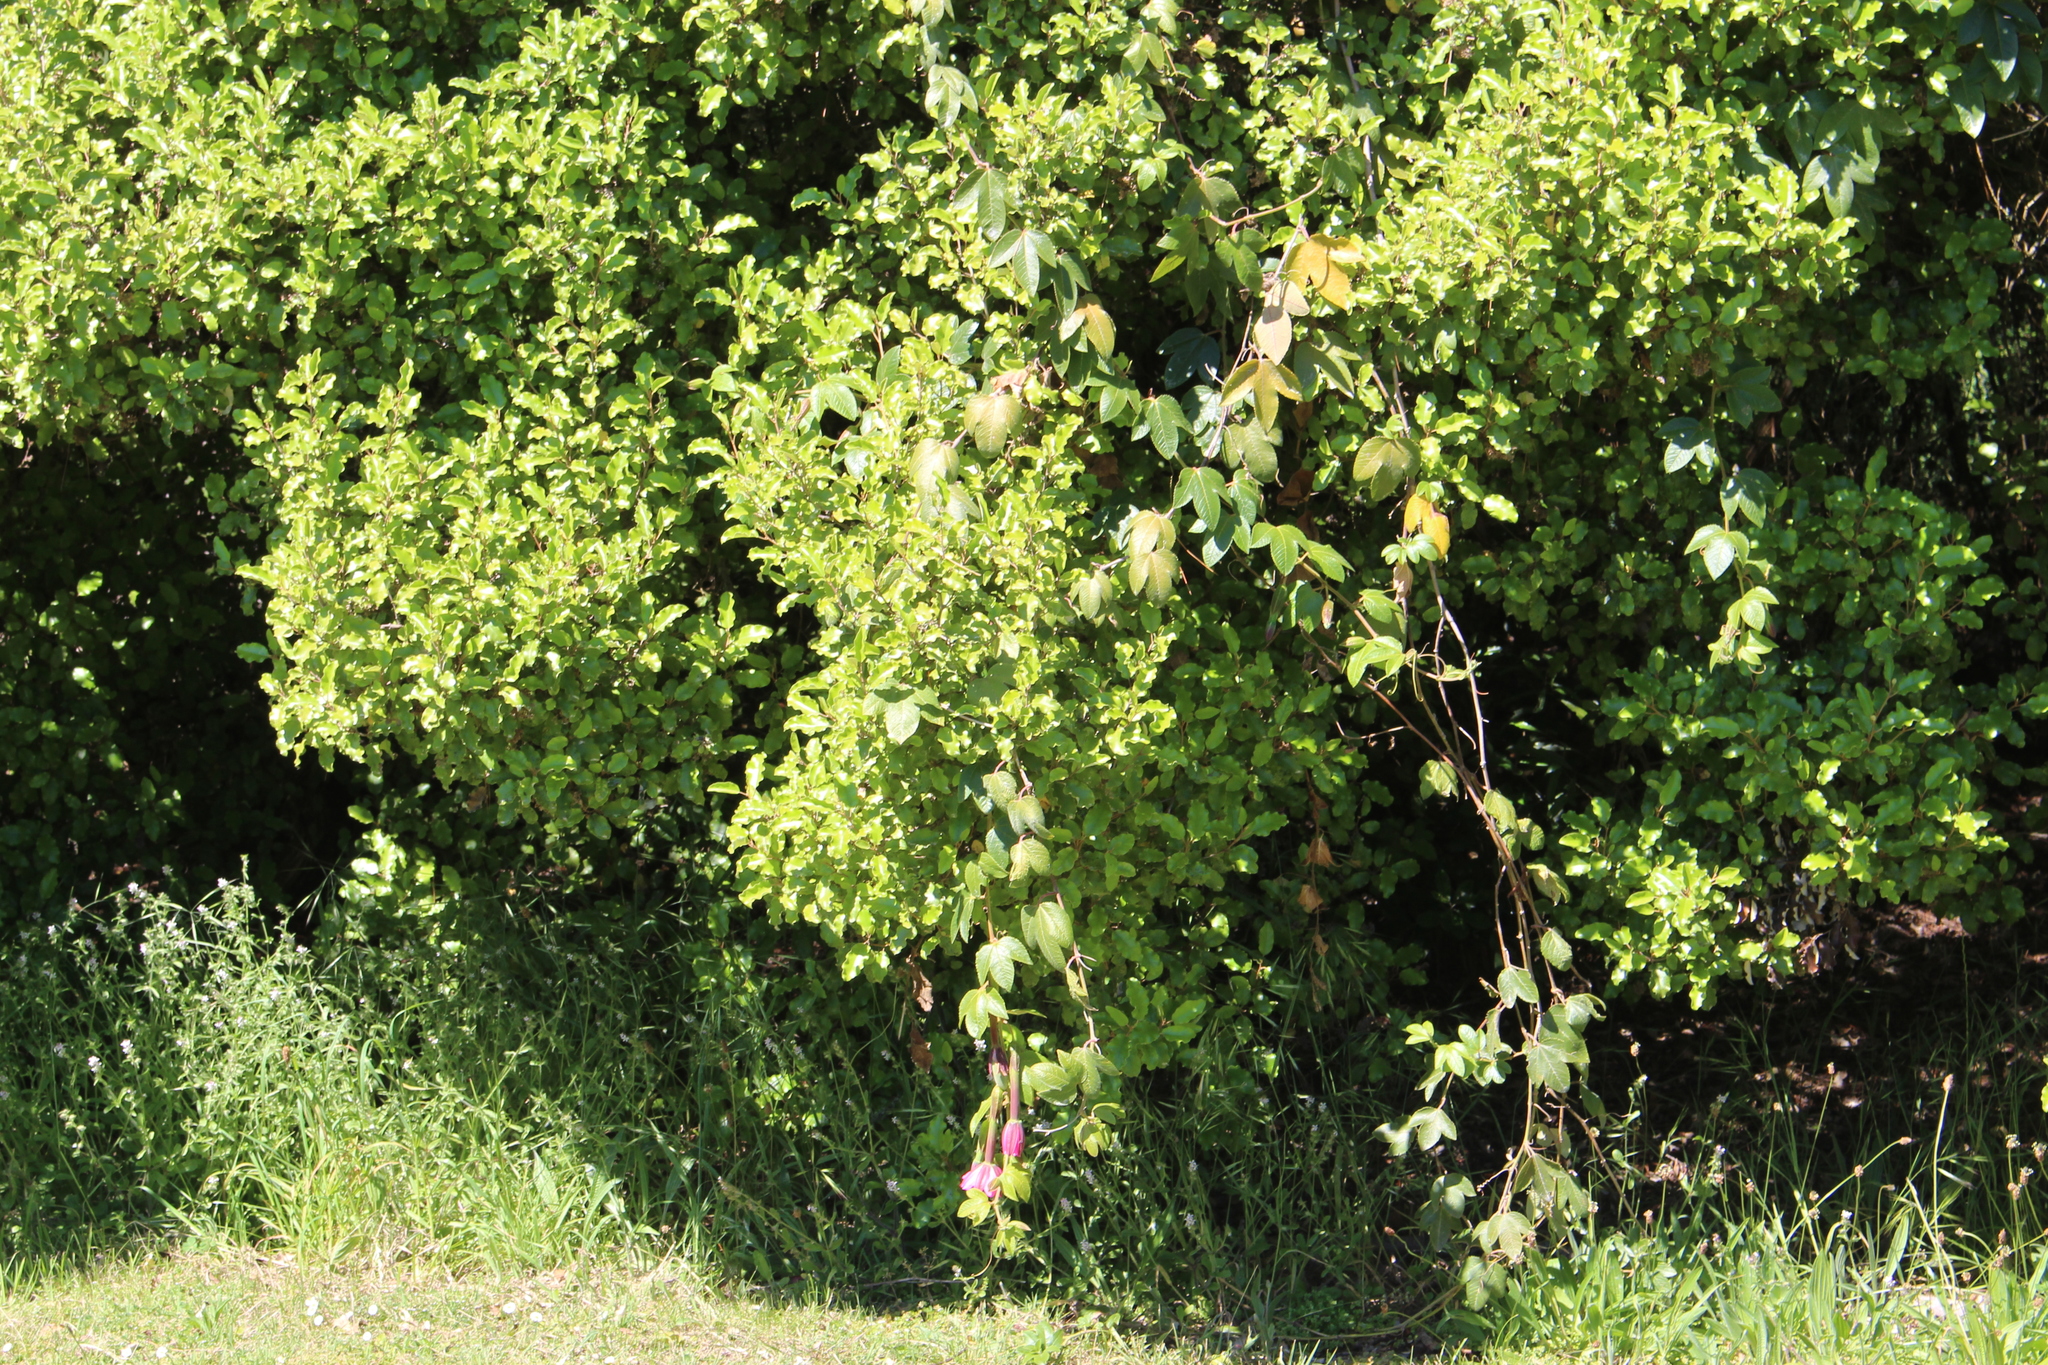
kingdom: Plantae
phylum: Tracheophyta
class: Magnoliopsida
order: Malpighiales
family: Passifloraceae
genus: Passiflora
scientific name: Passiflora tripartita
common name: Banana poka
